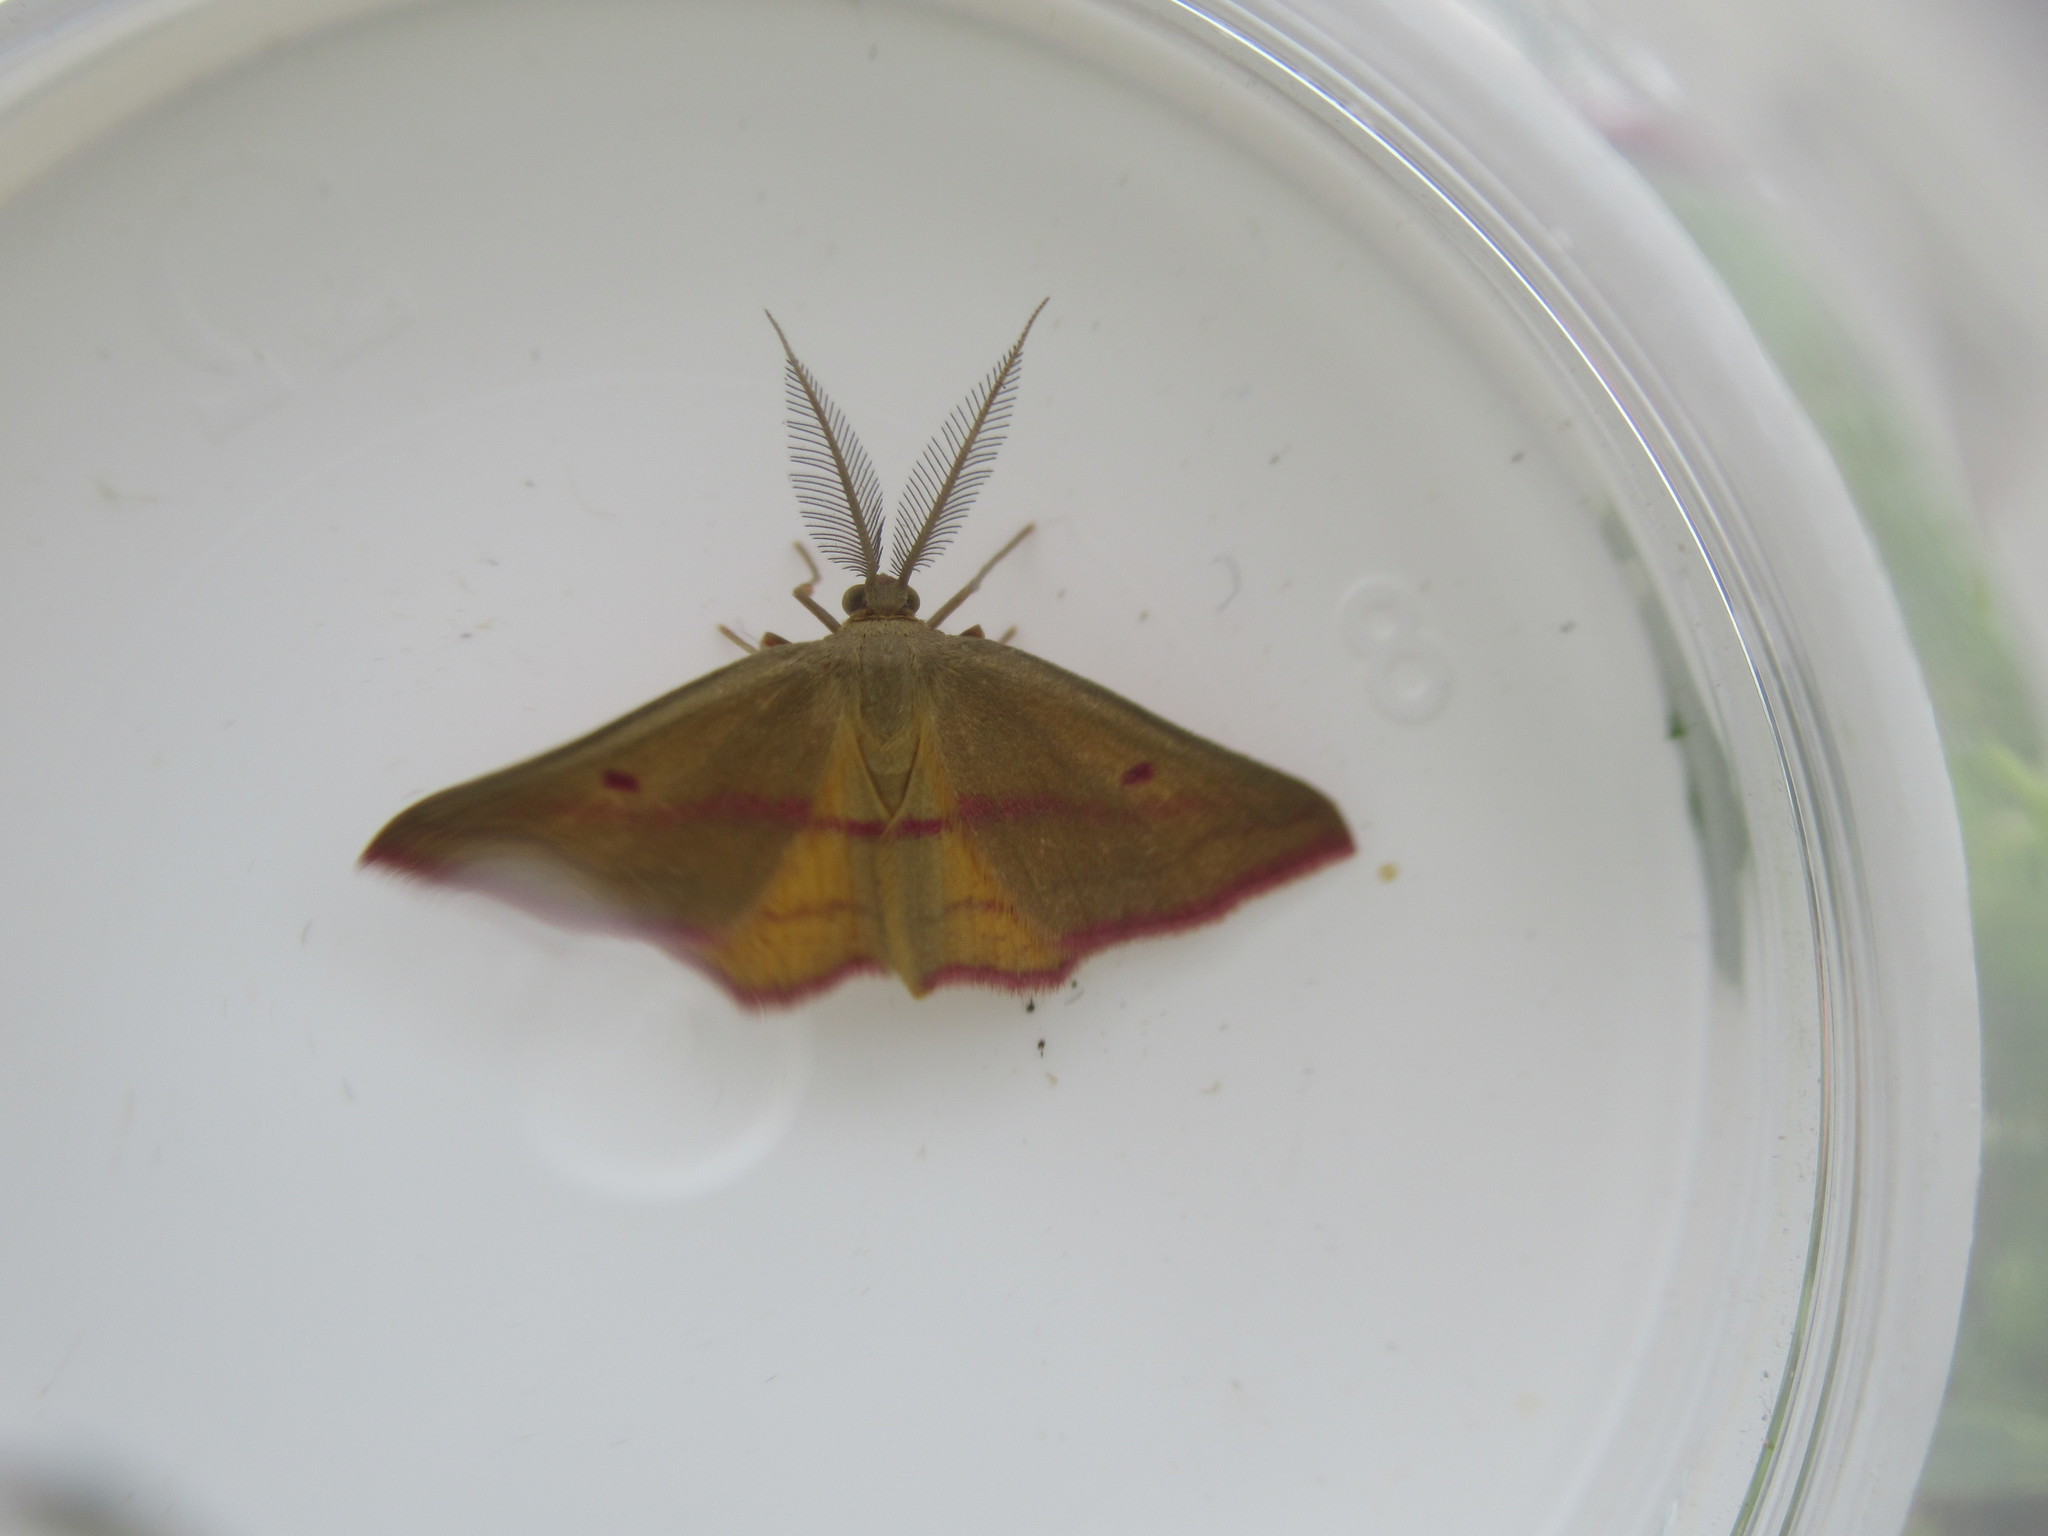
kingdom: Animalia
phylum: Arthropoda
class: Insecta
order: Lepidoptera
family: Geometridae
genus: Haematopis
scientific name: Haematopis grataria
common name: Chickweed geometer
